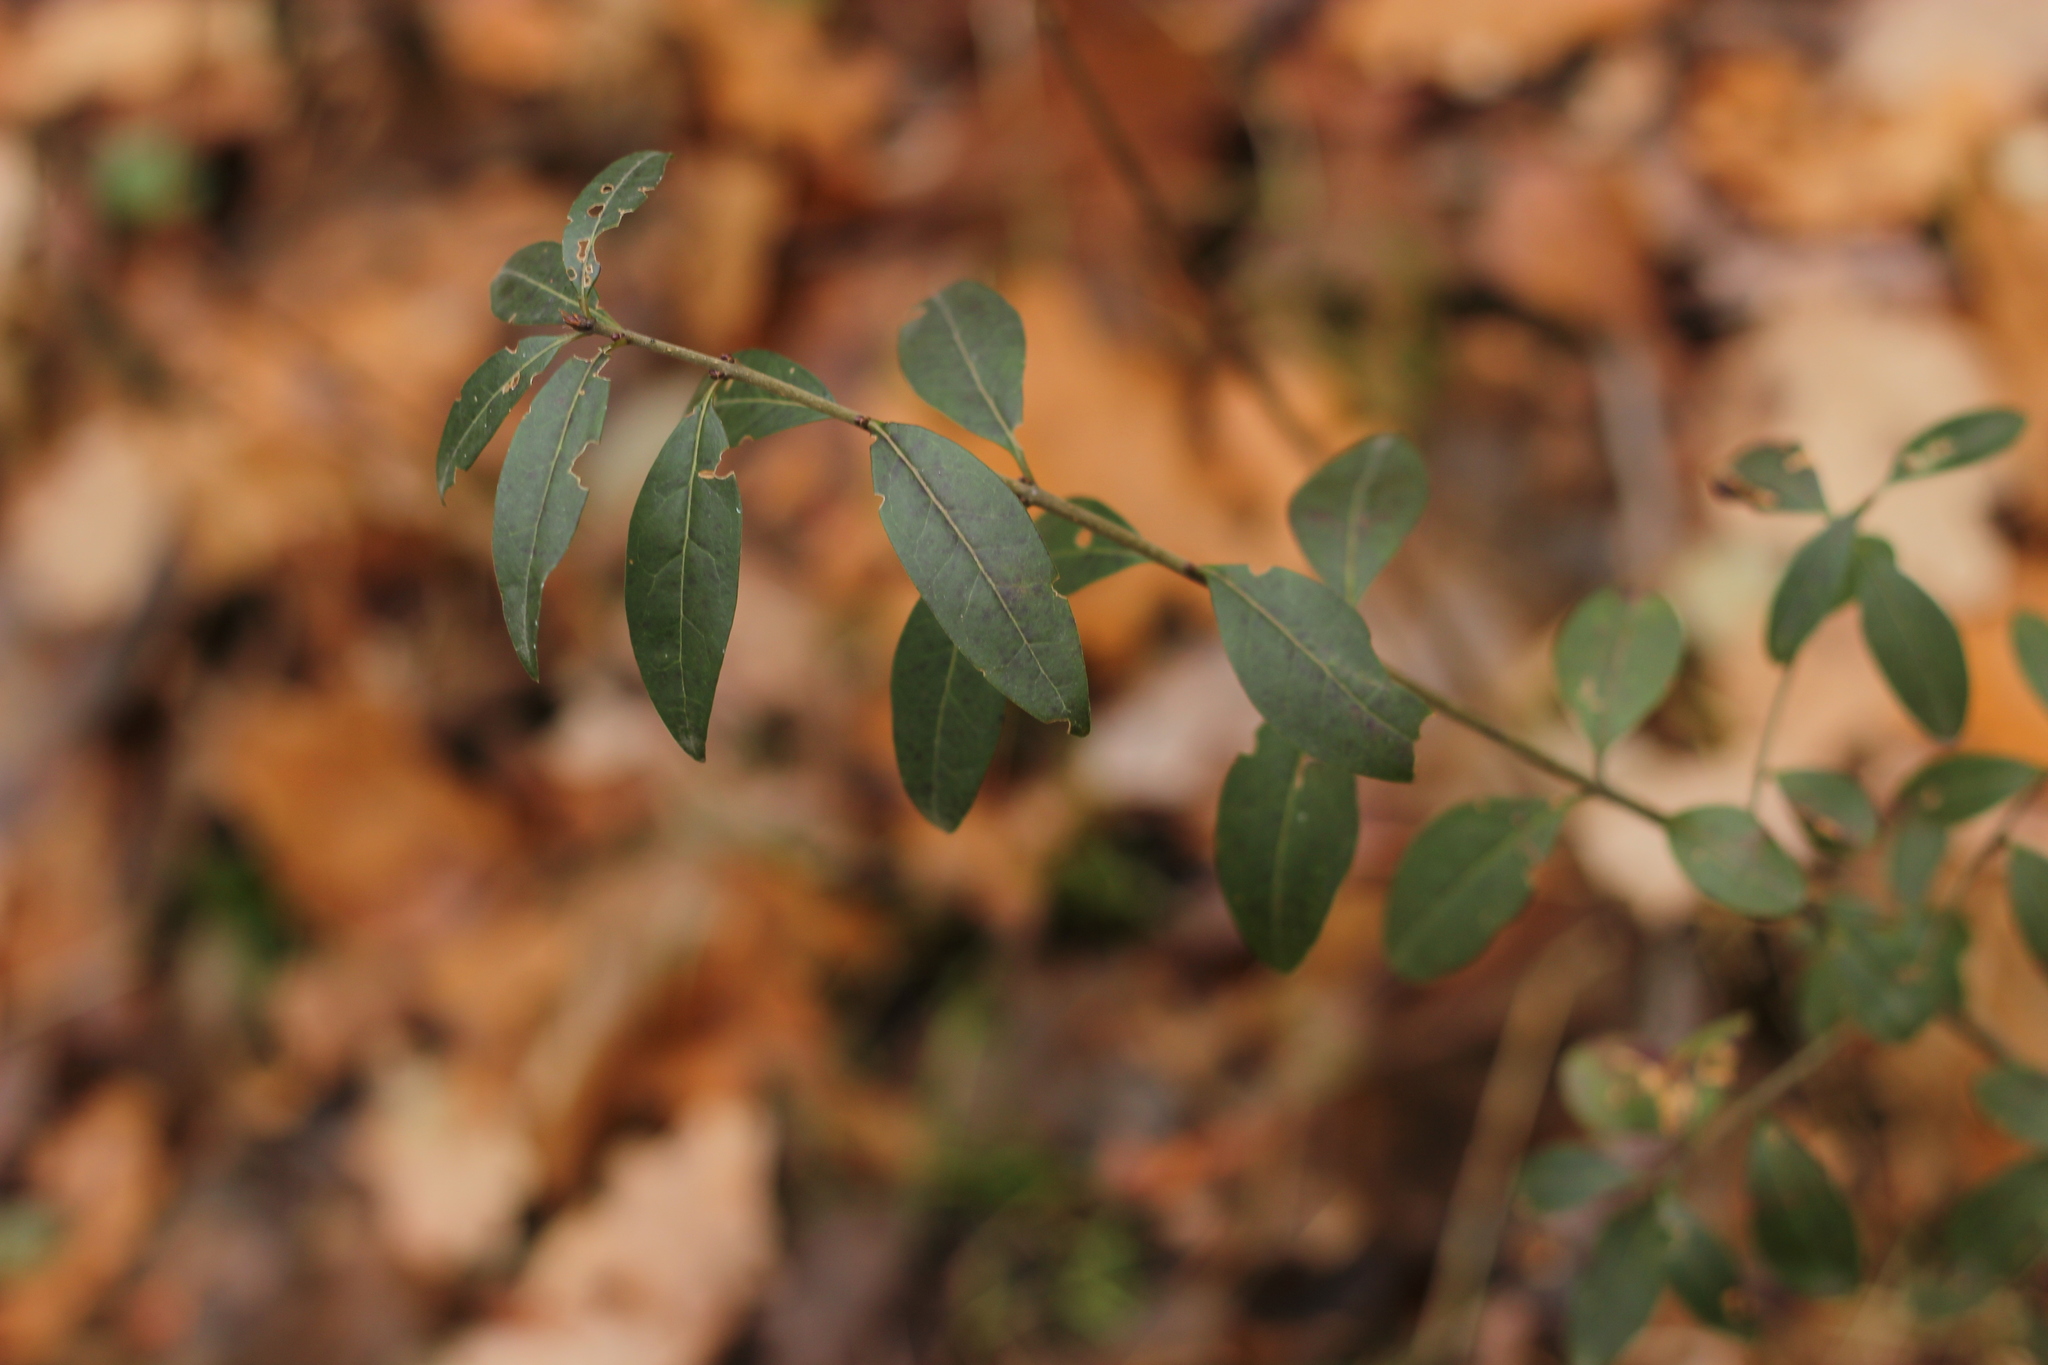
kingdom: Plantae
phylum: Tracheophyta
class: Magnoliopsida
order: Lamiales
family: Oleaceae
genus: Ligustrum
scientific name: Ligustrum vulgare
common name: Wild privet
